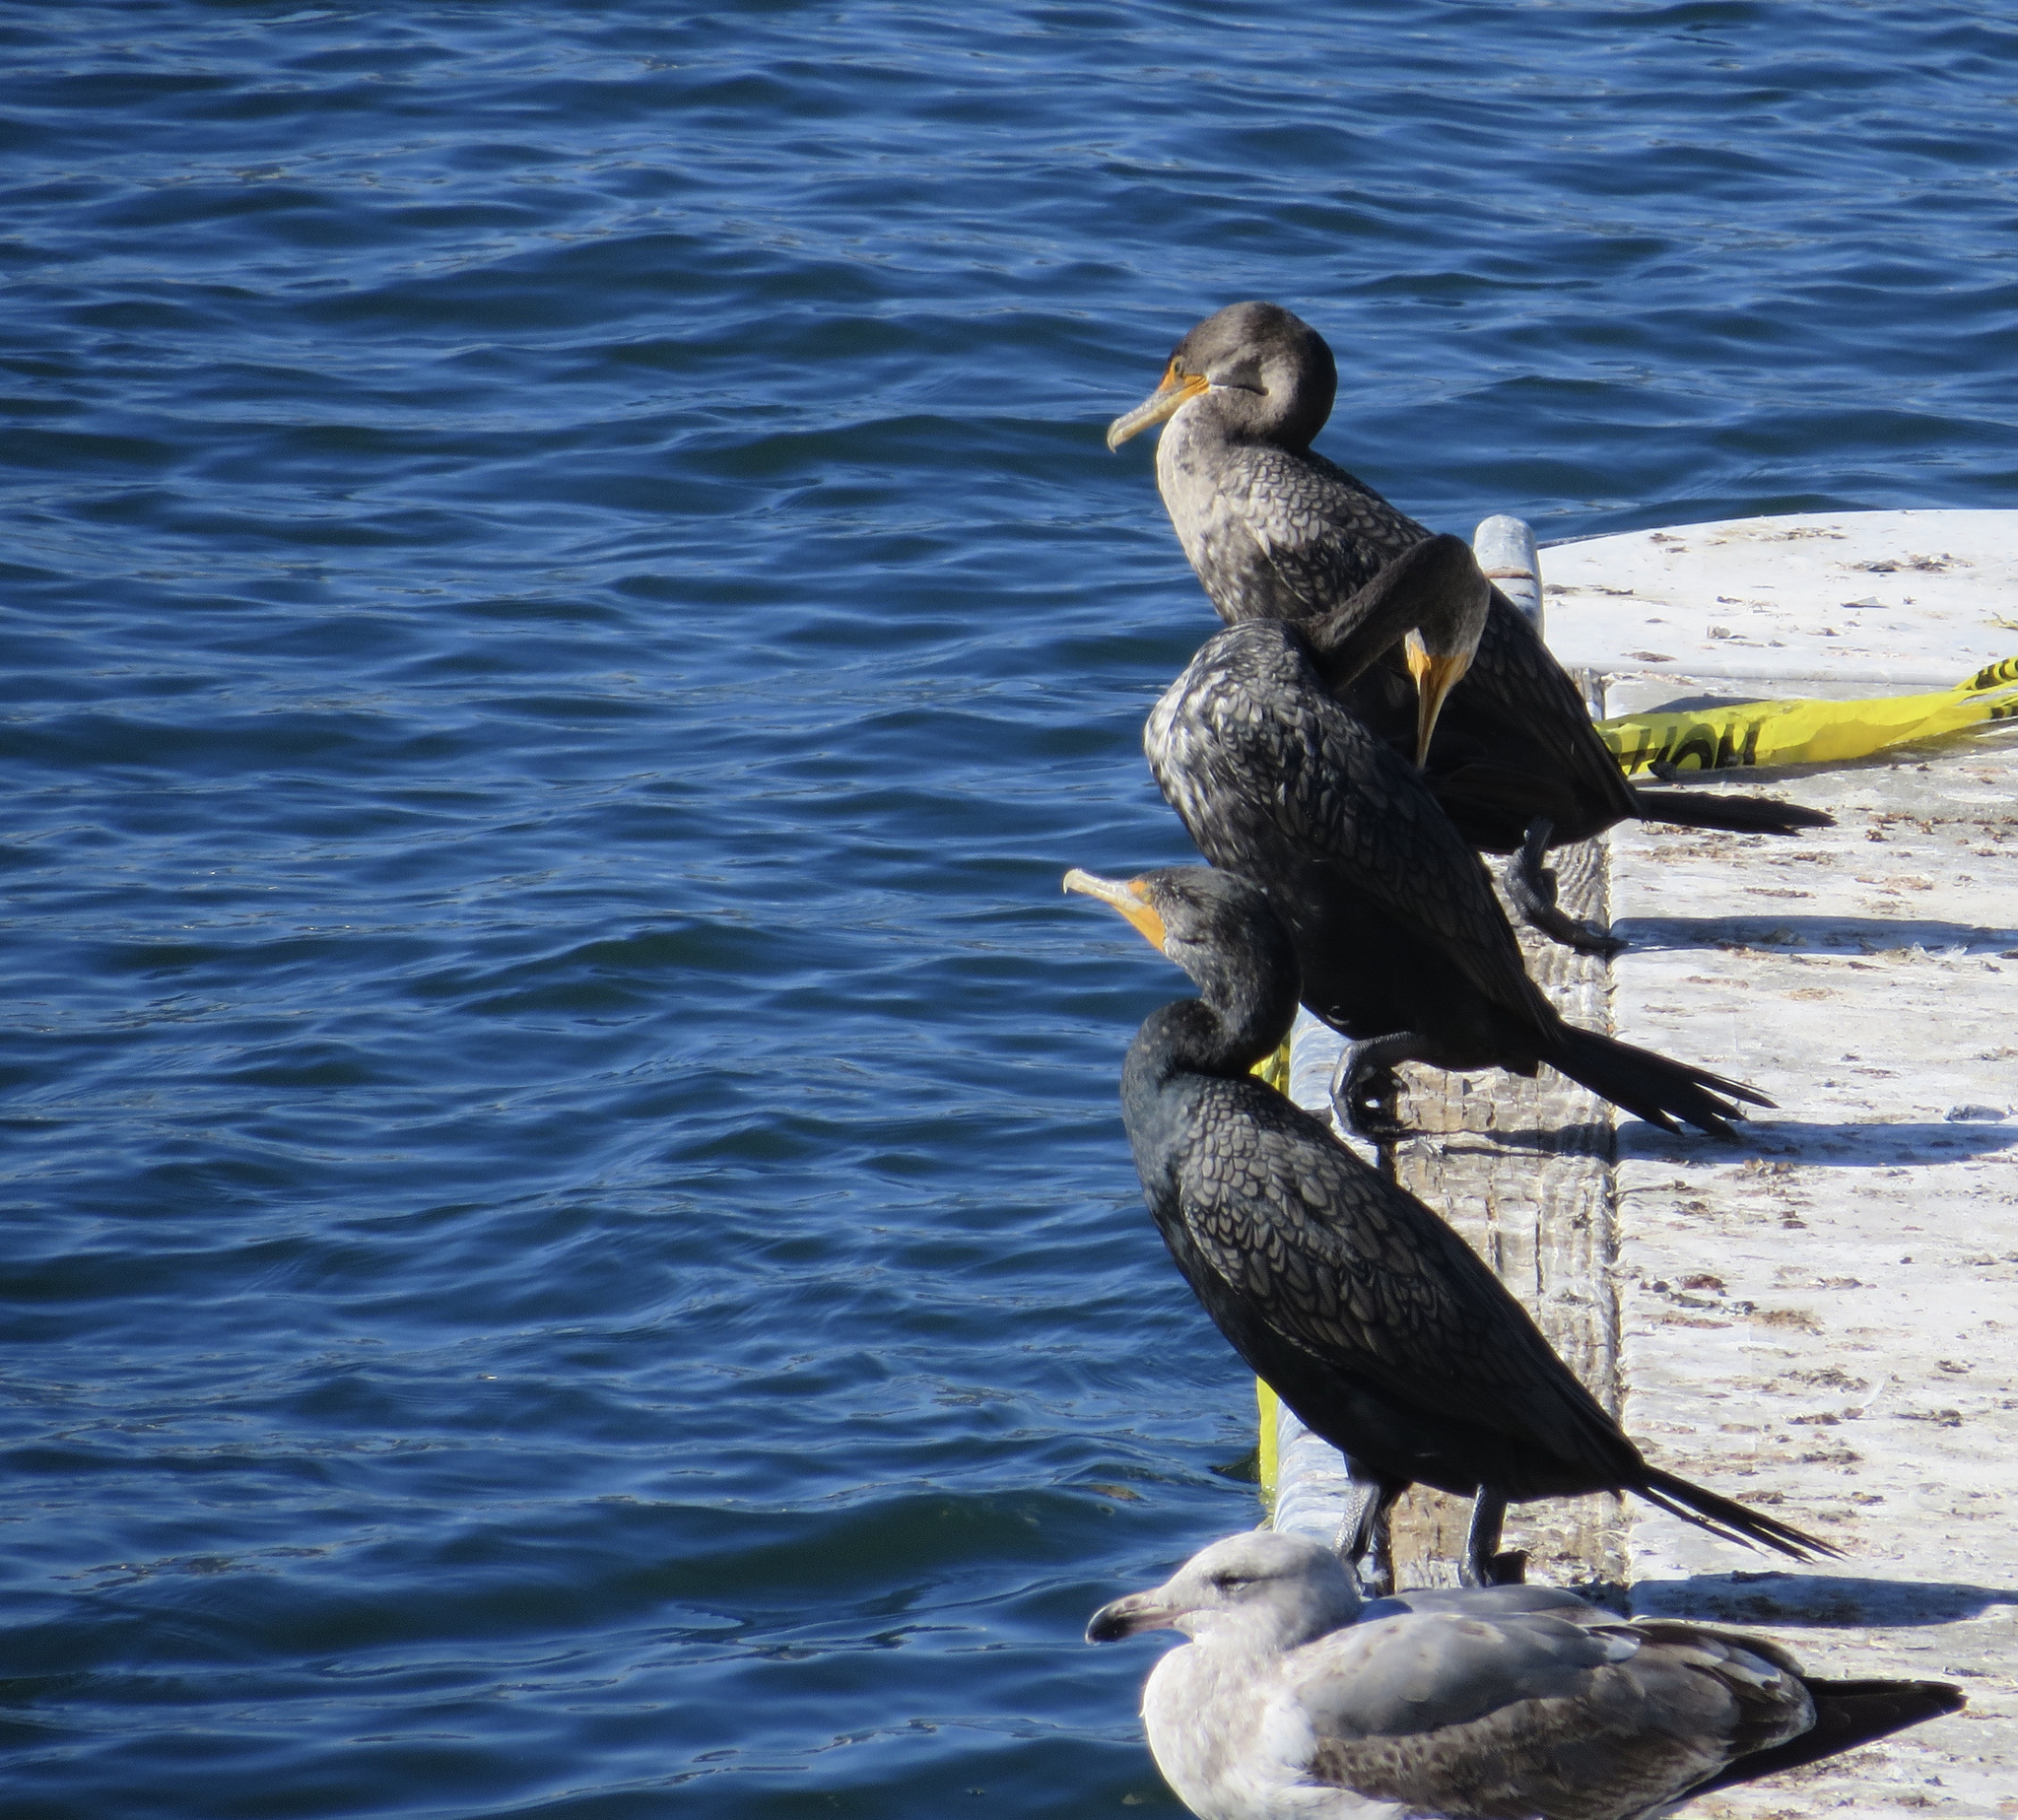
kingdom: Animalia
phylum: Chordata
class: Aves
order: Suliformes
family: Phalacrocoracidae
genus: Phalacrocorax
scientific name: Phalacrocorax auritus
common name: Double-crested cormorant
